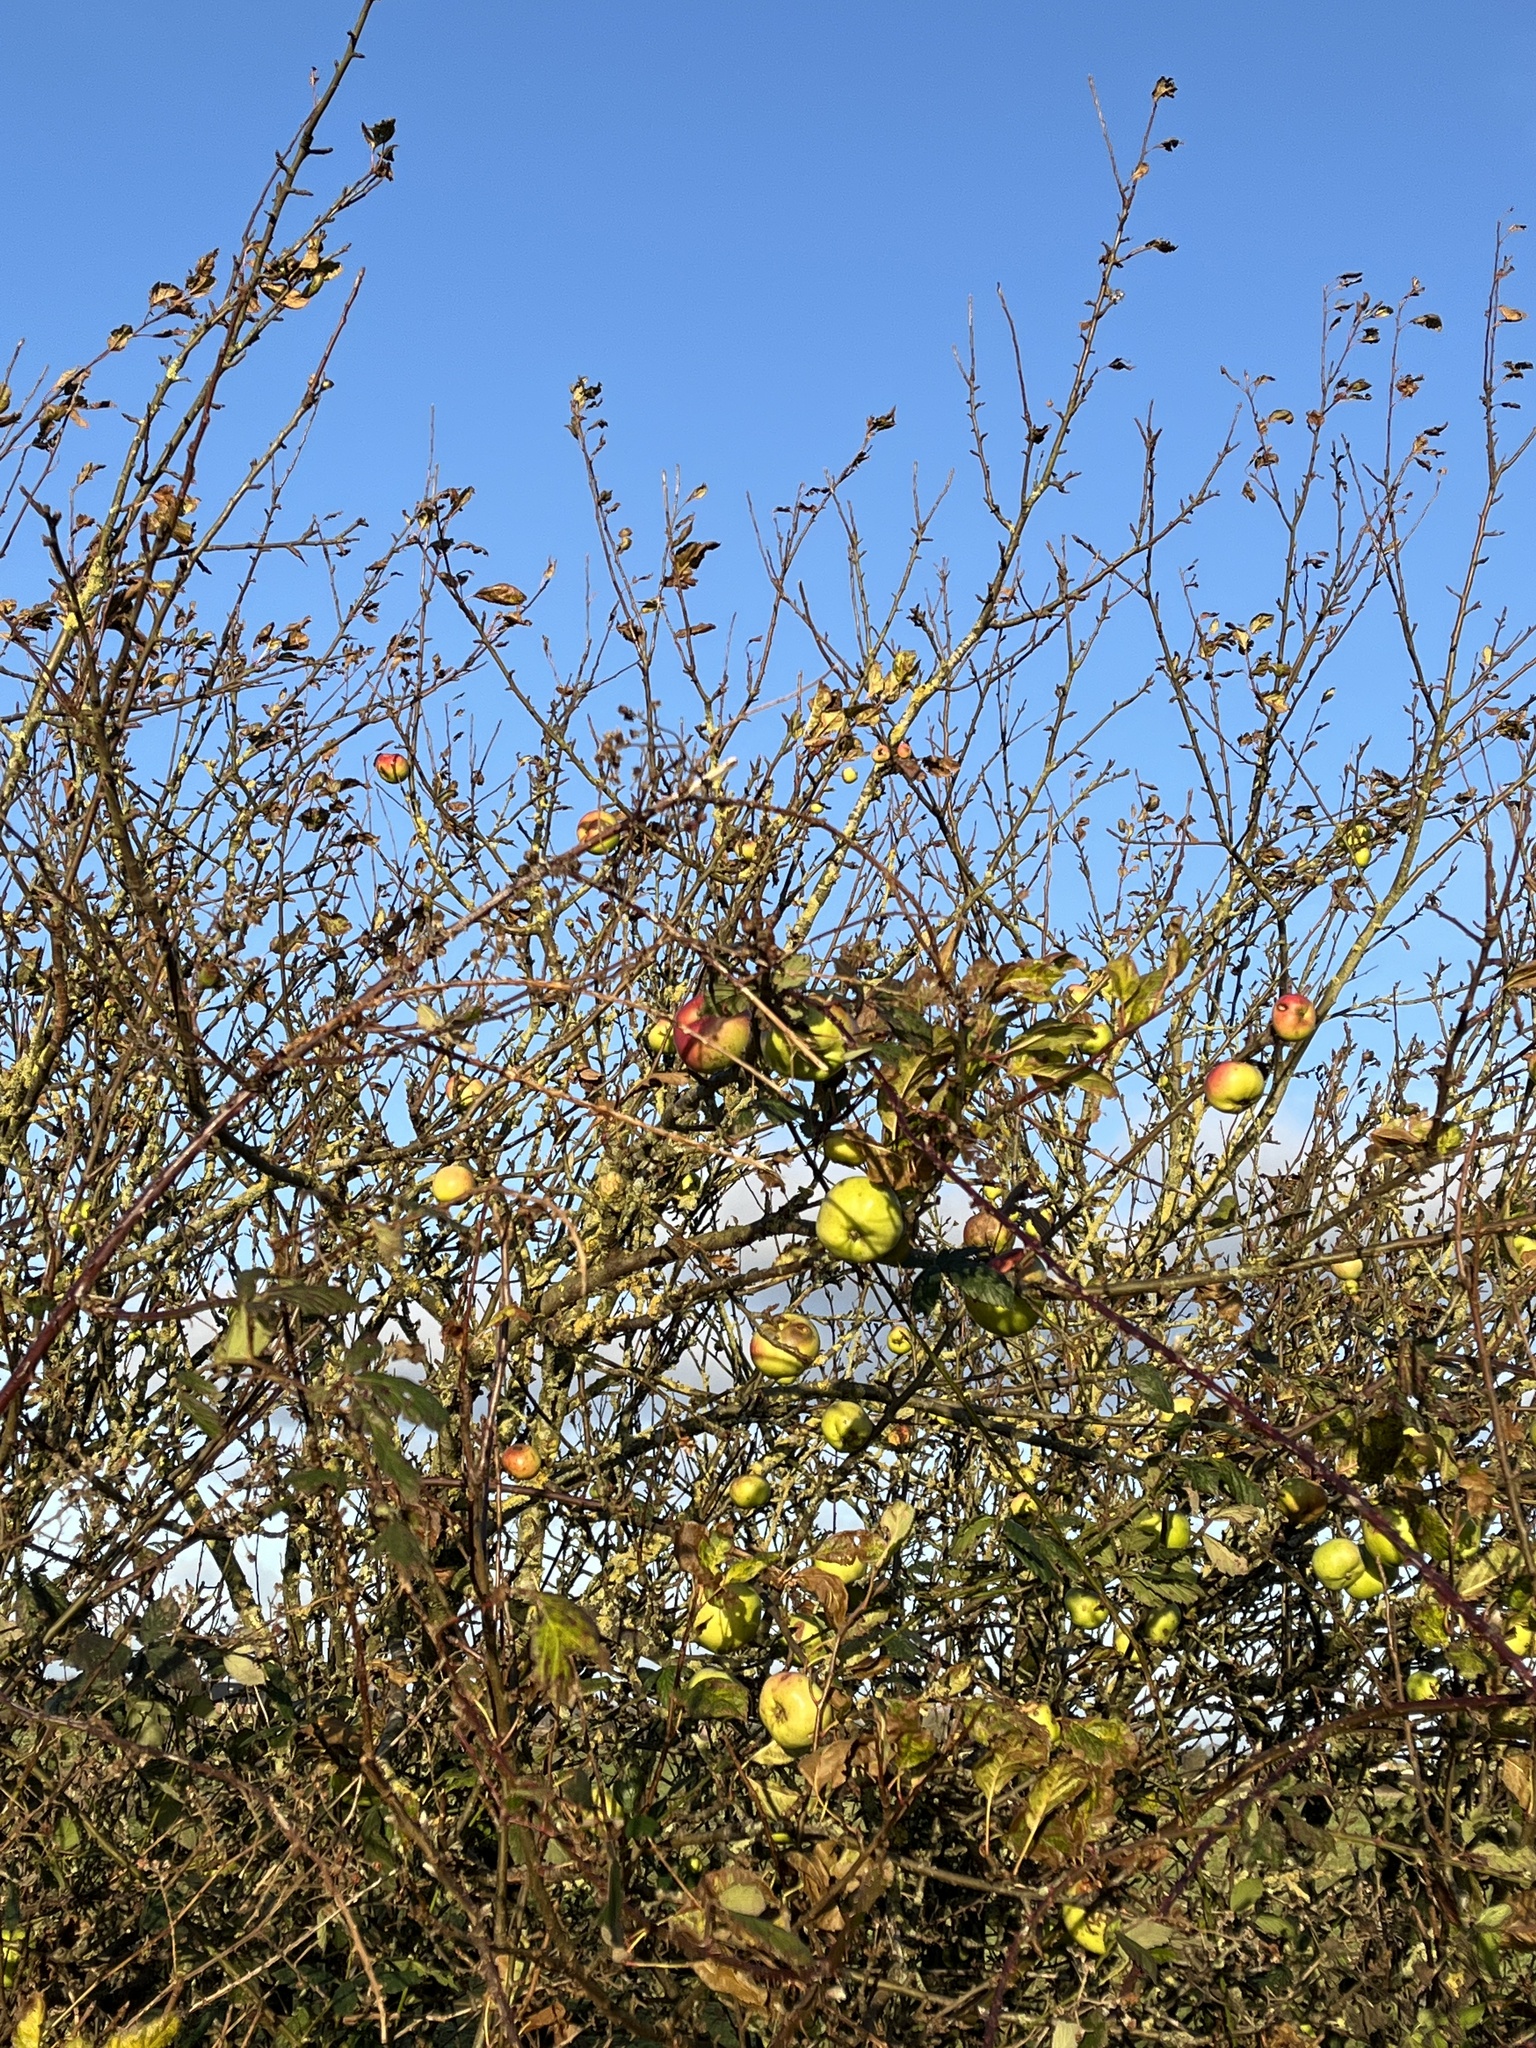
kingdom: Plantae
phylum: Tracheophyta
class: Magnoliopsida
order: Rosales
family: Rosaceae
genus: Malus
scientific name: Malus domestica
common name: Apple
